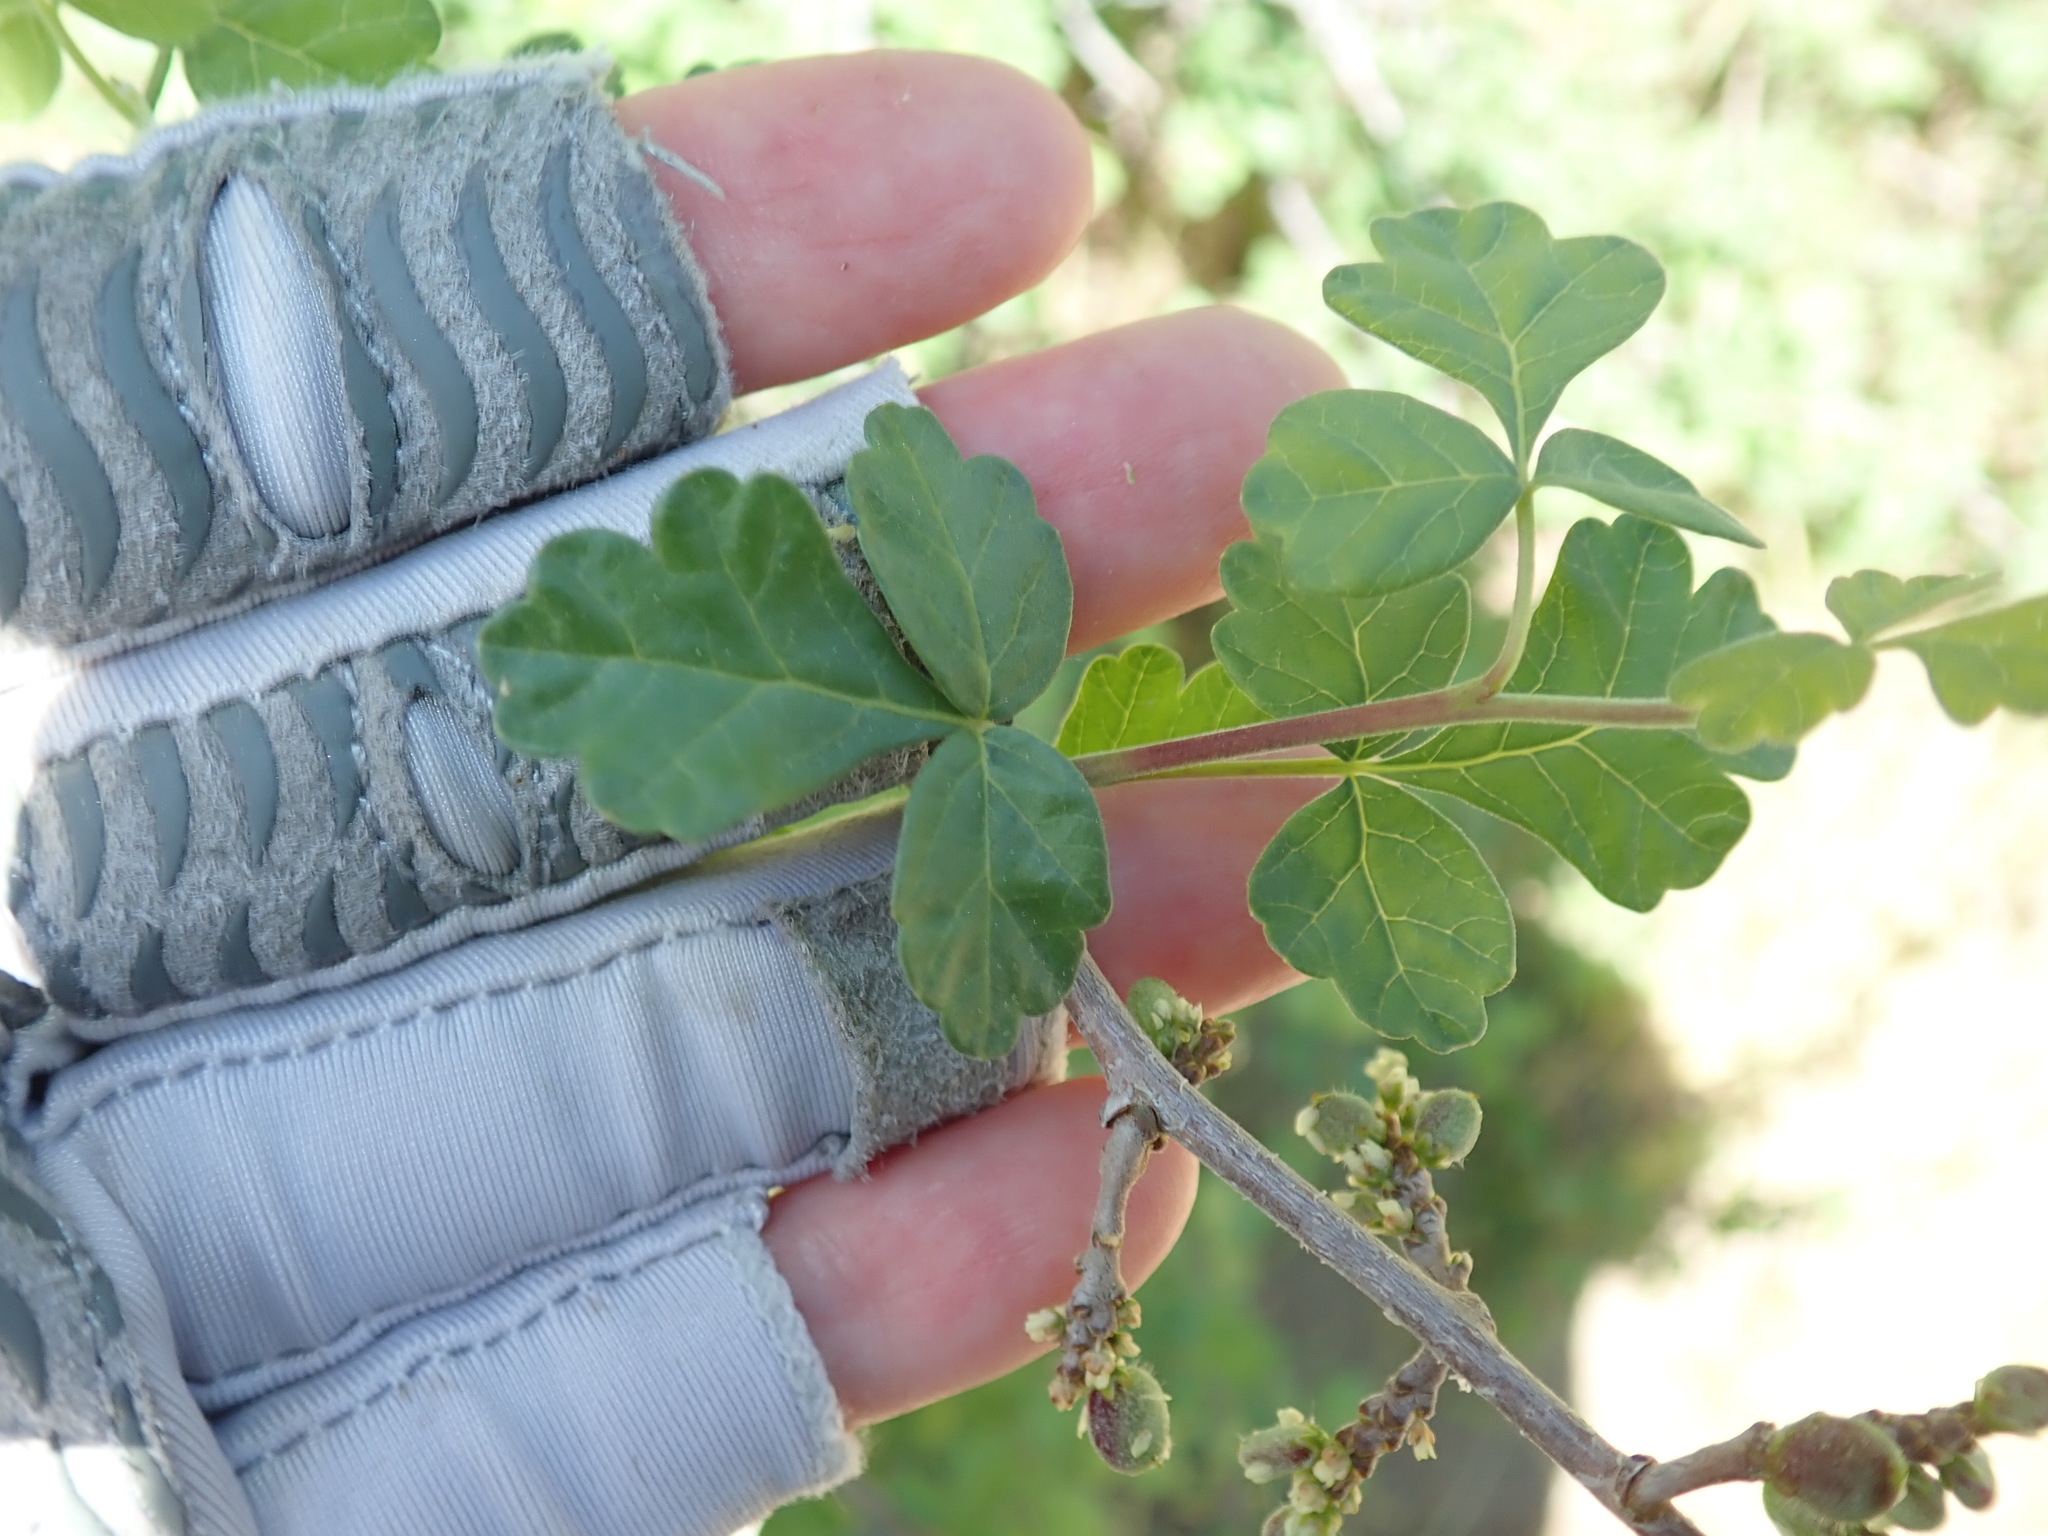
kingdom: Plantae
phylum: Tracheophyta
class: Magnoliopsida
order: Sapindales
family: Anacardiaceae
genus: Rhus
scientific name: Rhus aromatica
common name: Aromatic sumac
